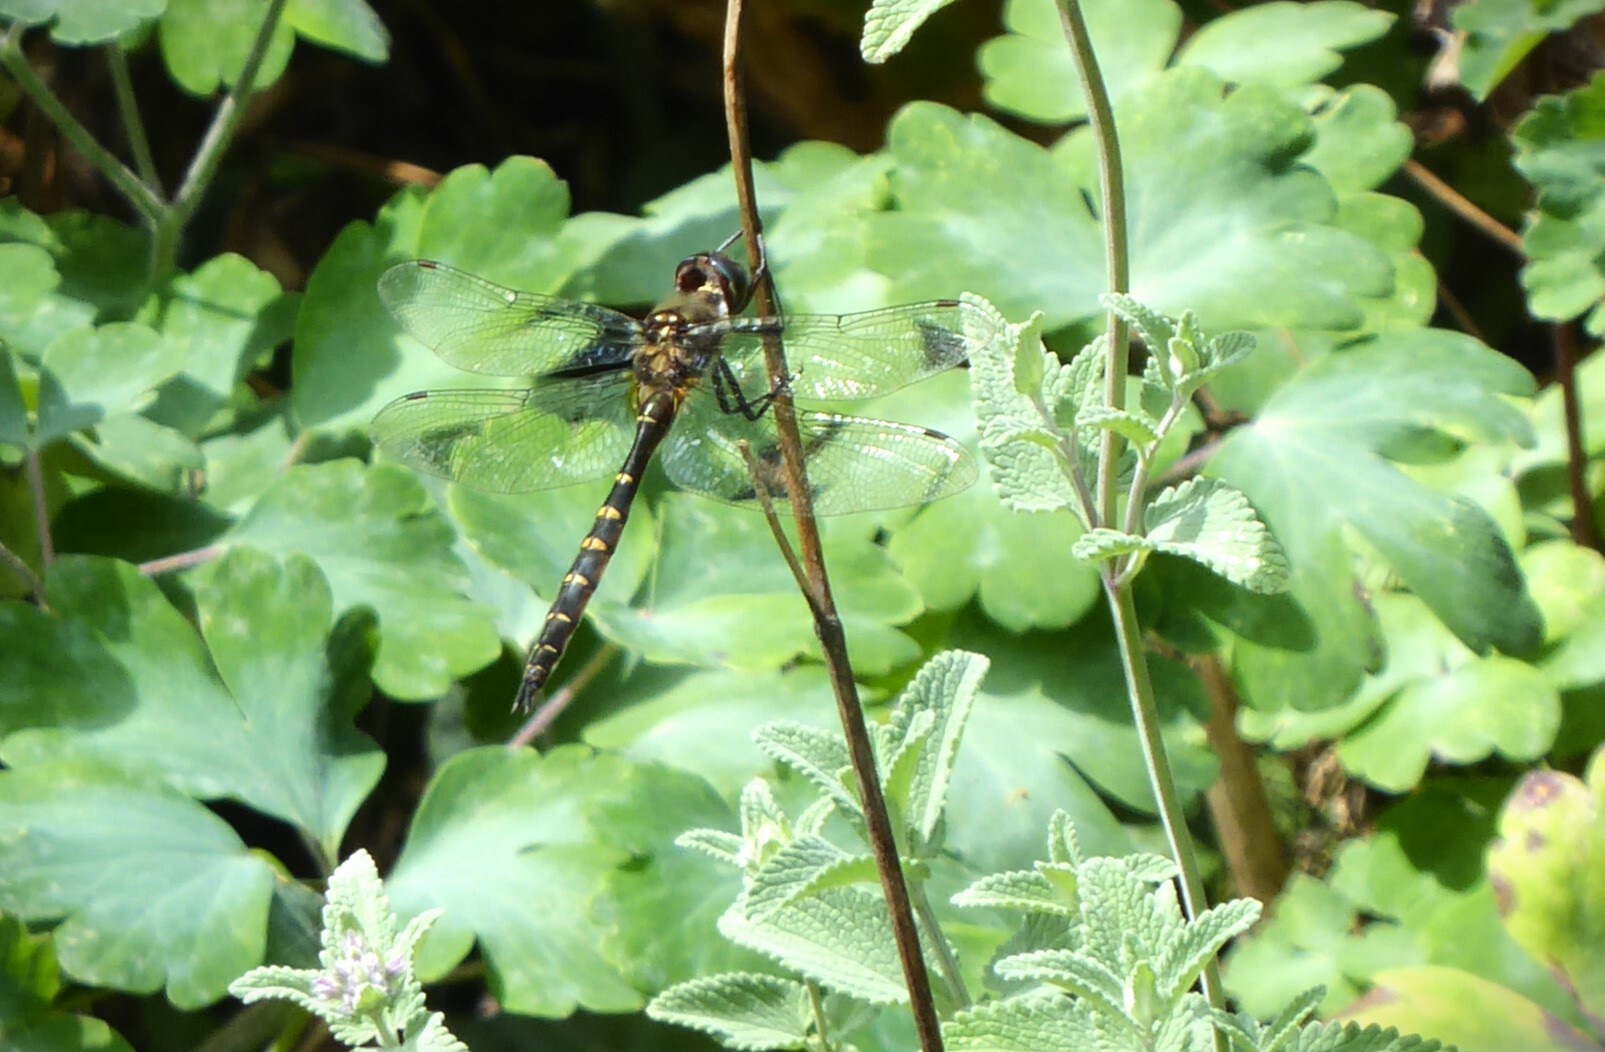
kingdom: Animalia
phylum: Arthropoda
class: Insecta
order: Odonata
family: Corduliidae
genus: Procordulia
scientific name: Procordulia smithii
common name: Ranger dragonfly
